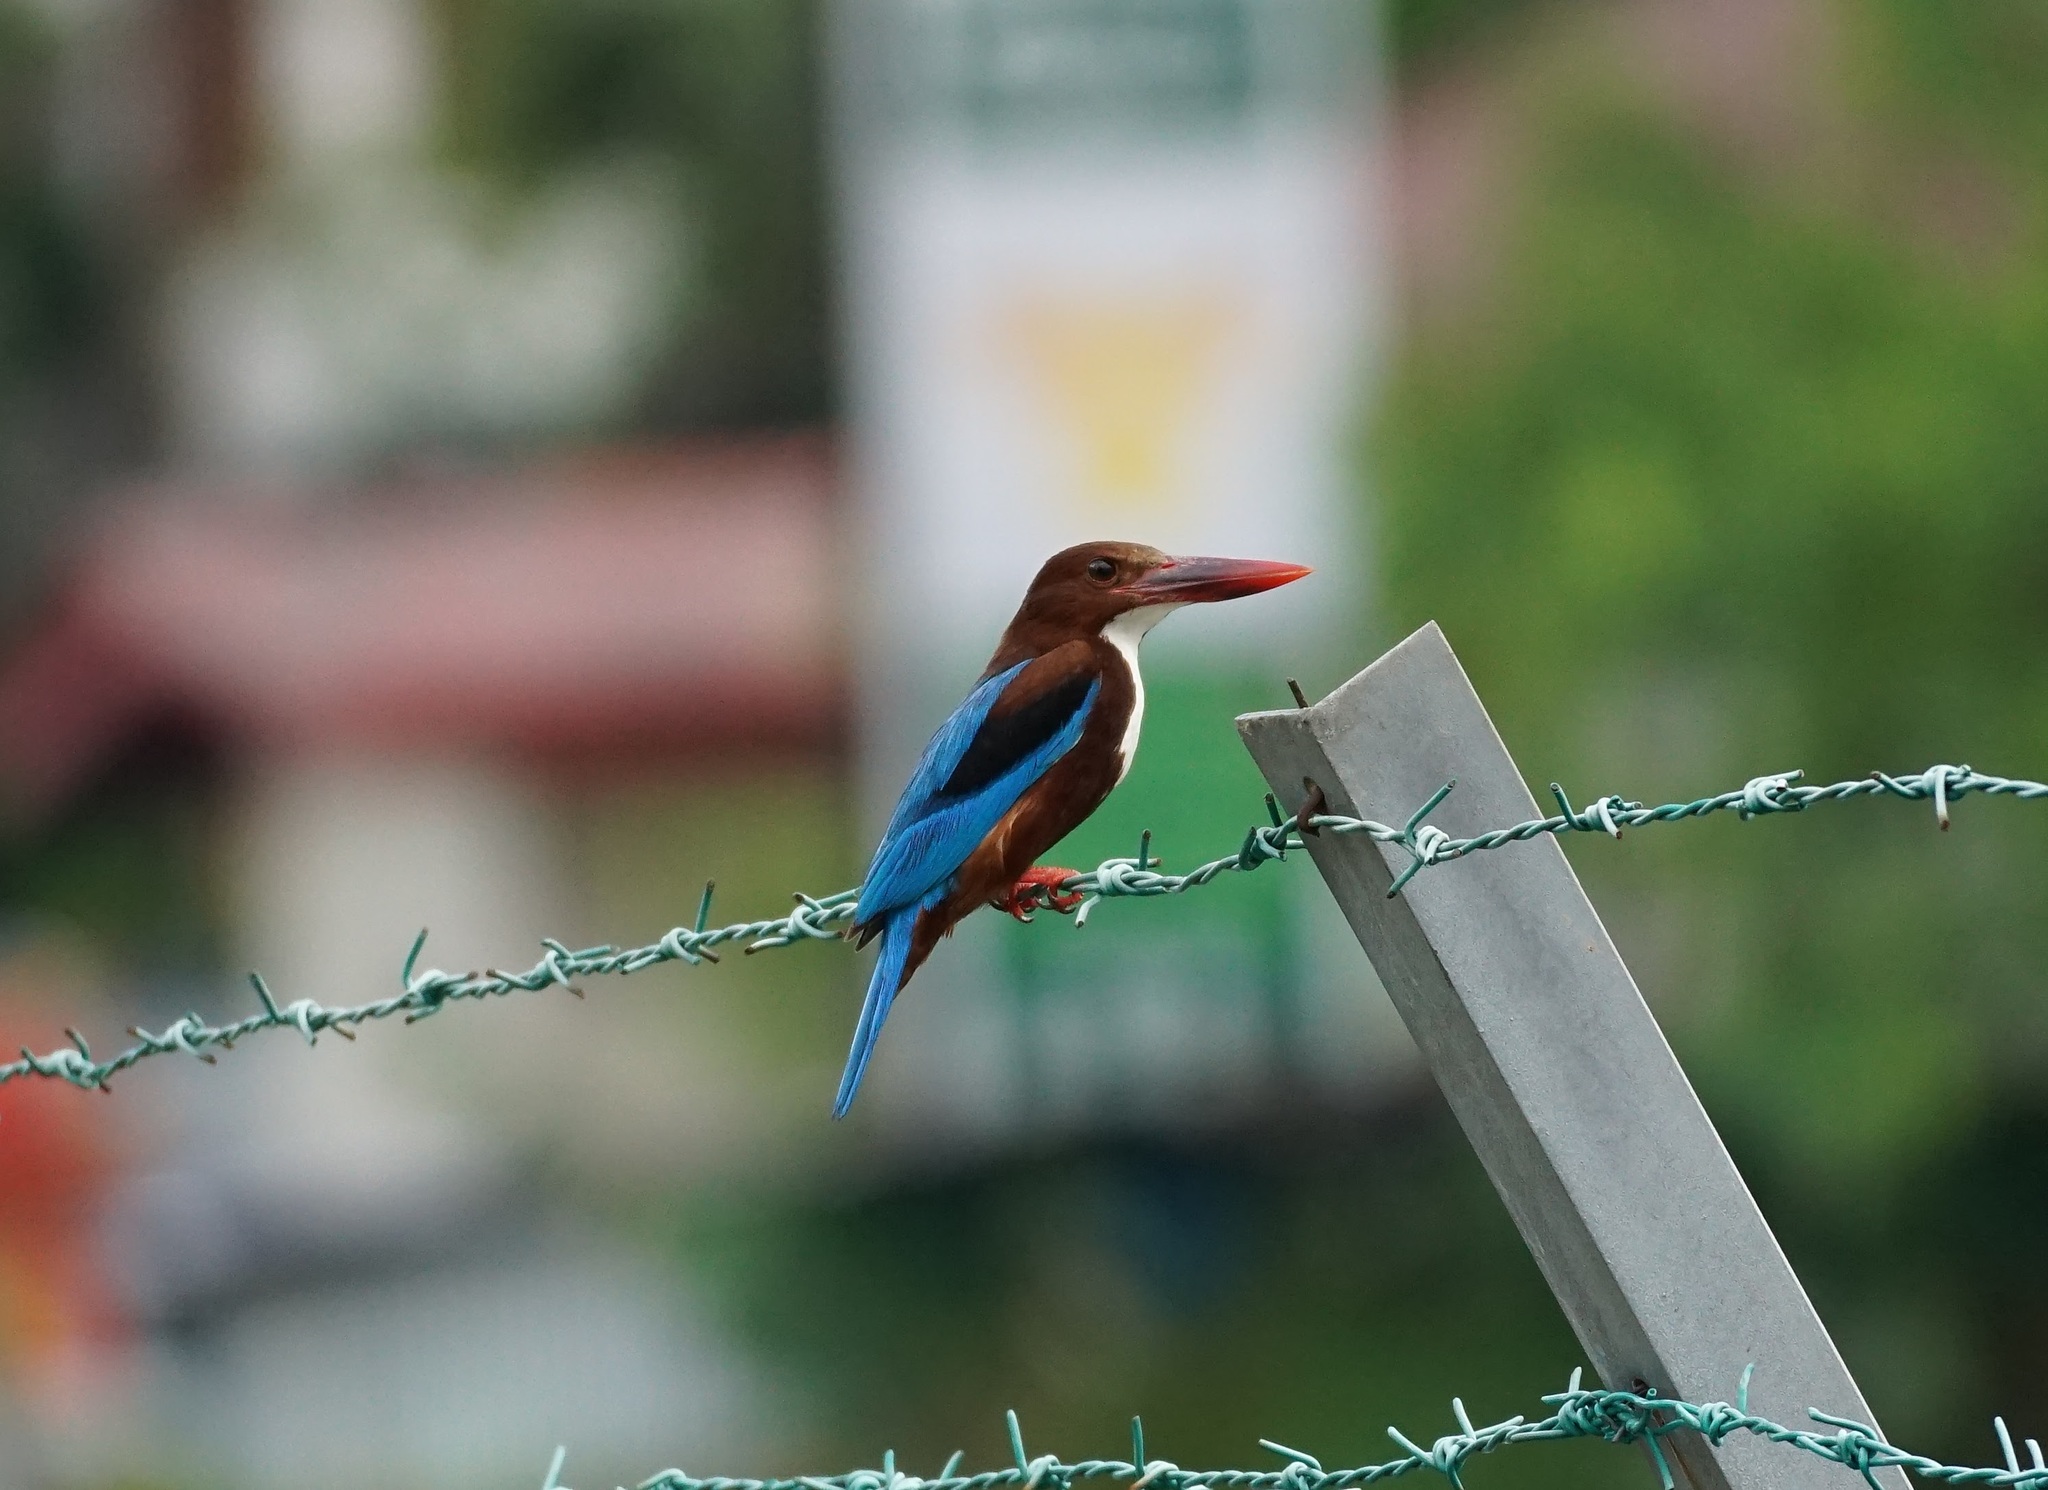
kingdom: Animalia
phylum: Chordata
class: Aves
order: Coraciiformes
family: Alcedinidae
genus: Halcyon
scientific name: Halcyon smyrnensis
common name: White-throated kingfisher
